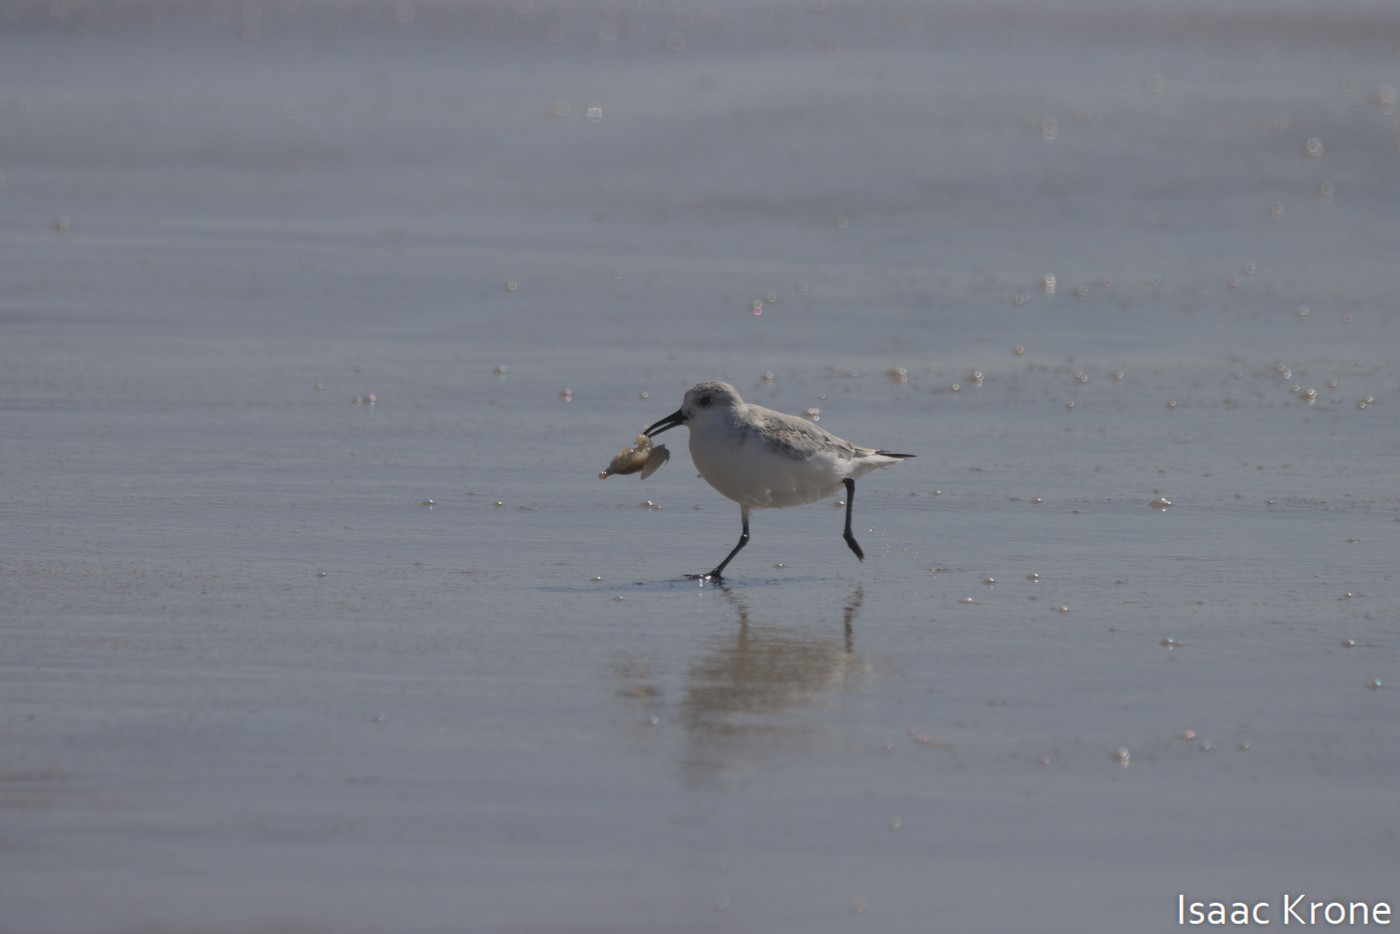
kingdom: Animalia
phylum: Arthropoda
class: Malacostraca
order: Decapoda
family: Hippidae
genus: Emerita
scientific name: Emerita analoga
